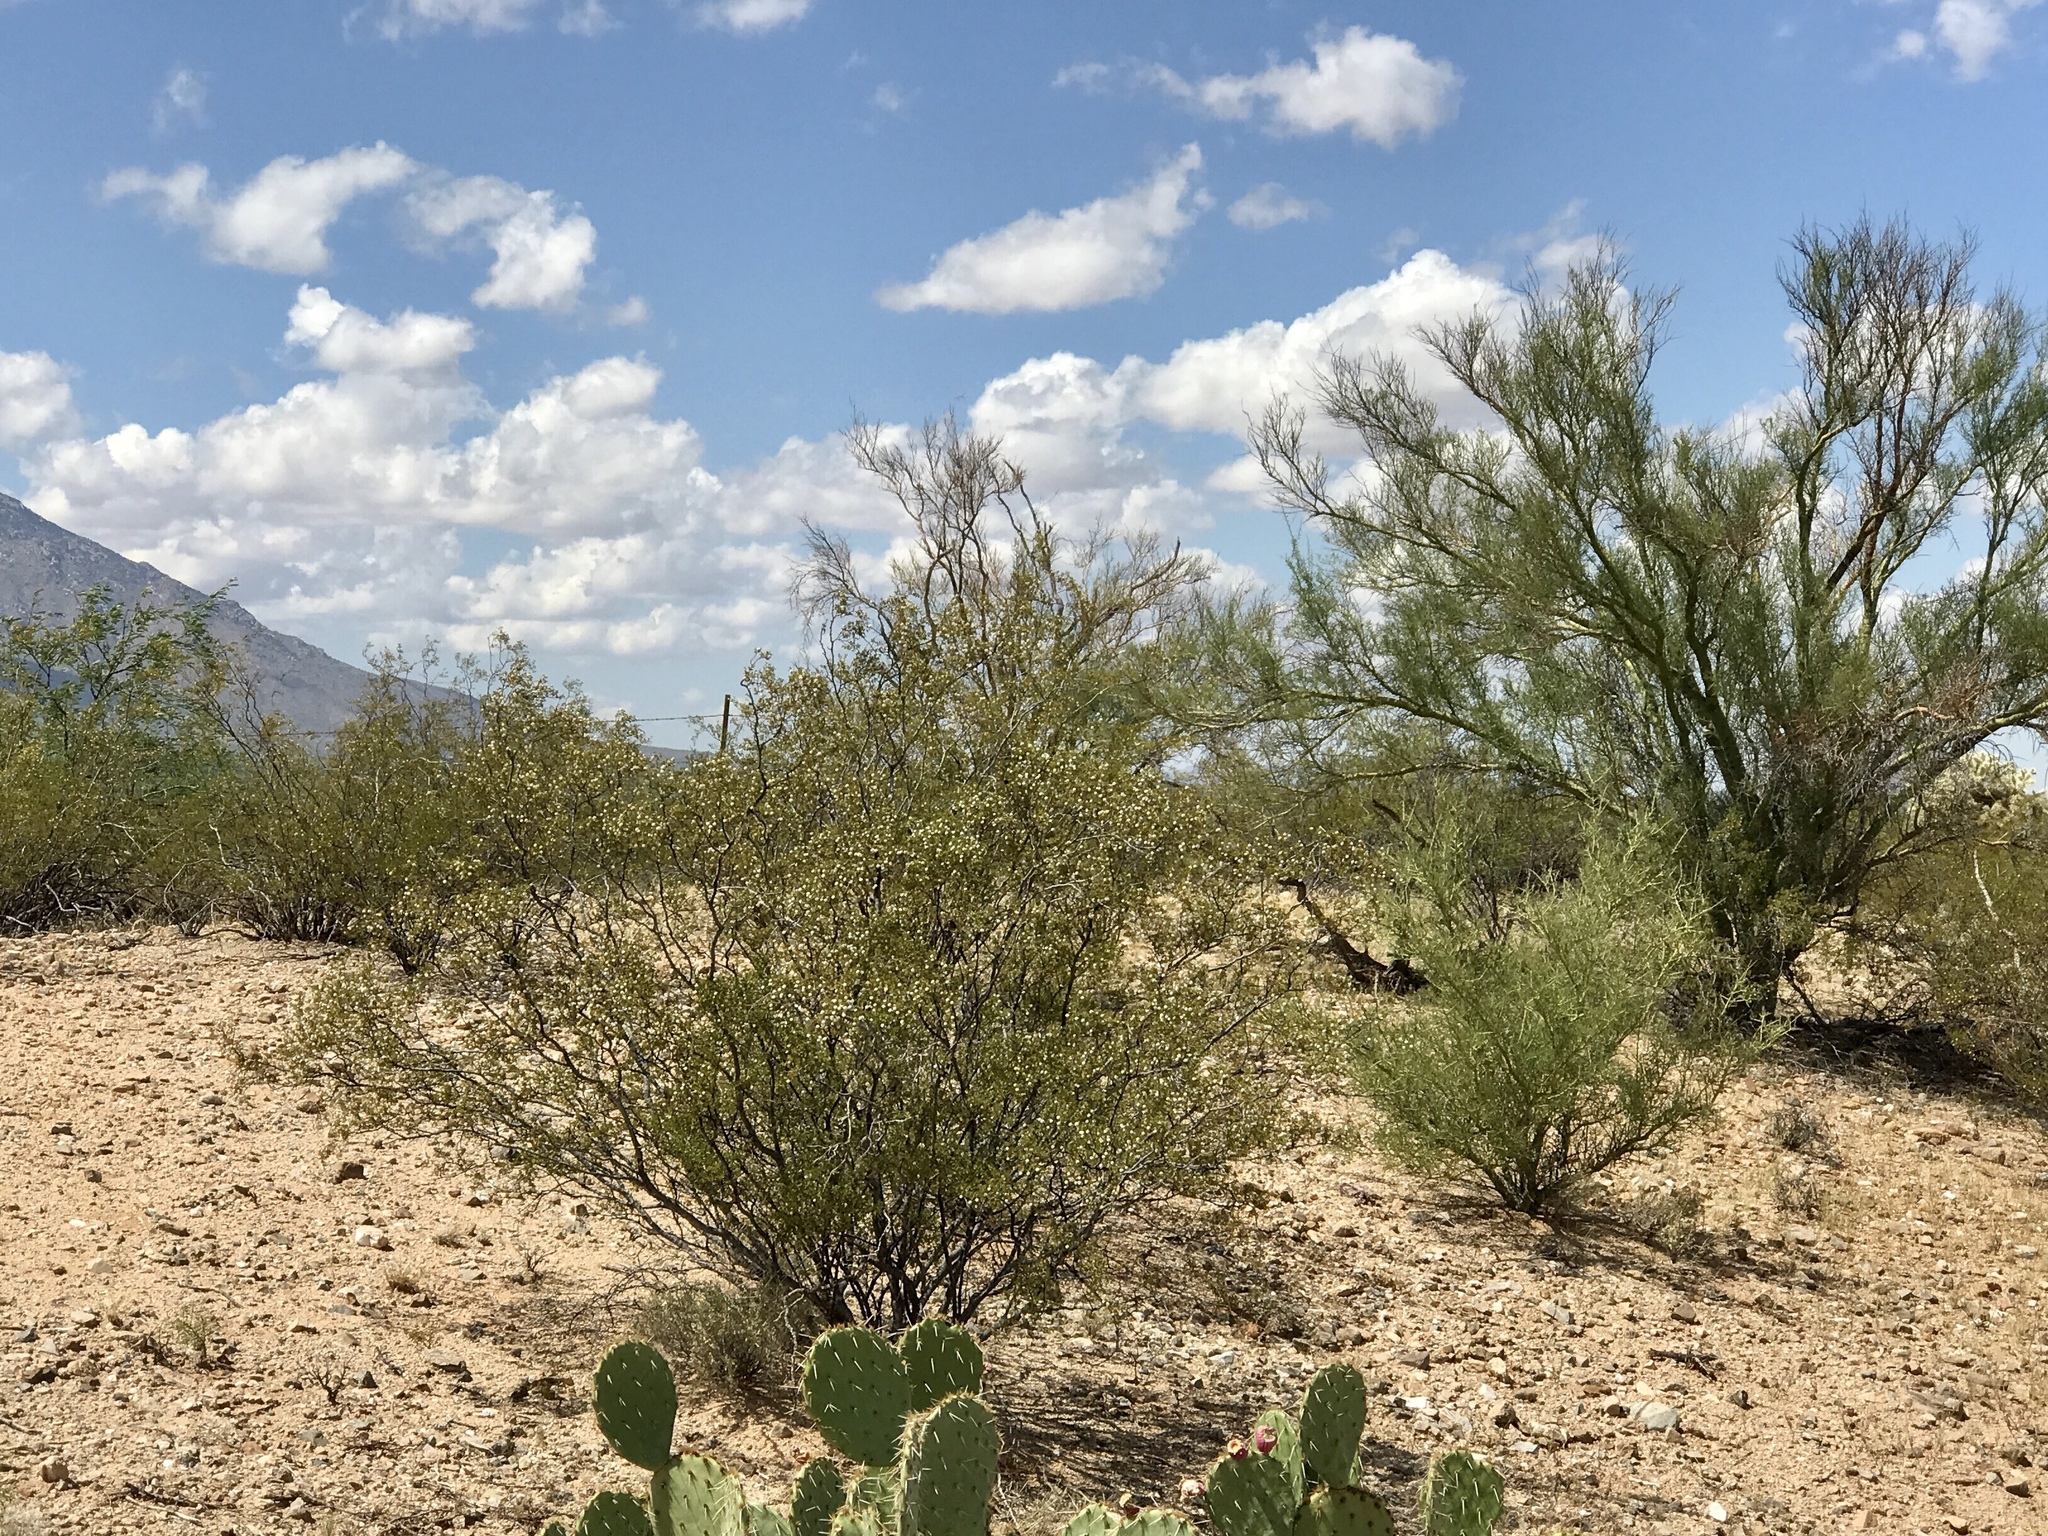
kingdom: Plantae
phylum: Tracheophyta
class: Magnoliopsida
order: Zygophyllales
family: Zygophyllaceae
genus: Larrea
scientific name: Larrea tridentata
